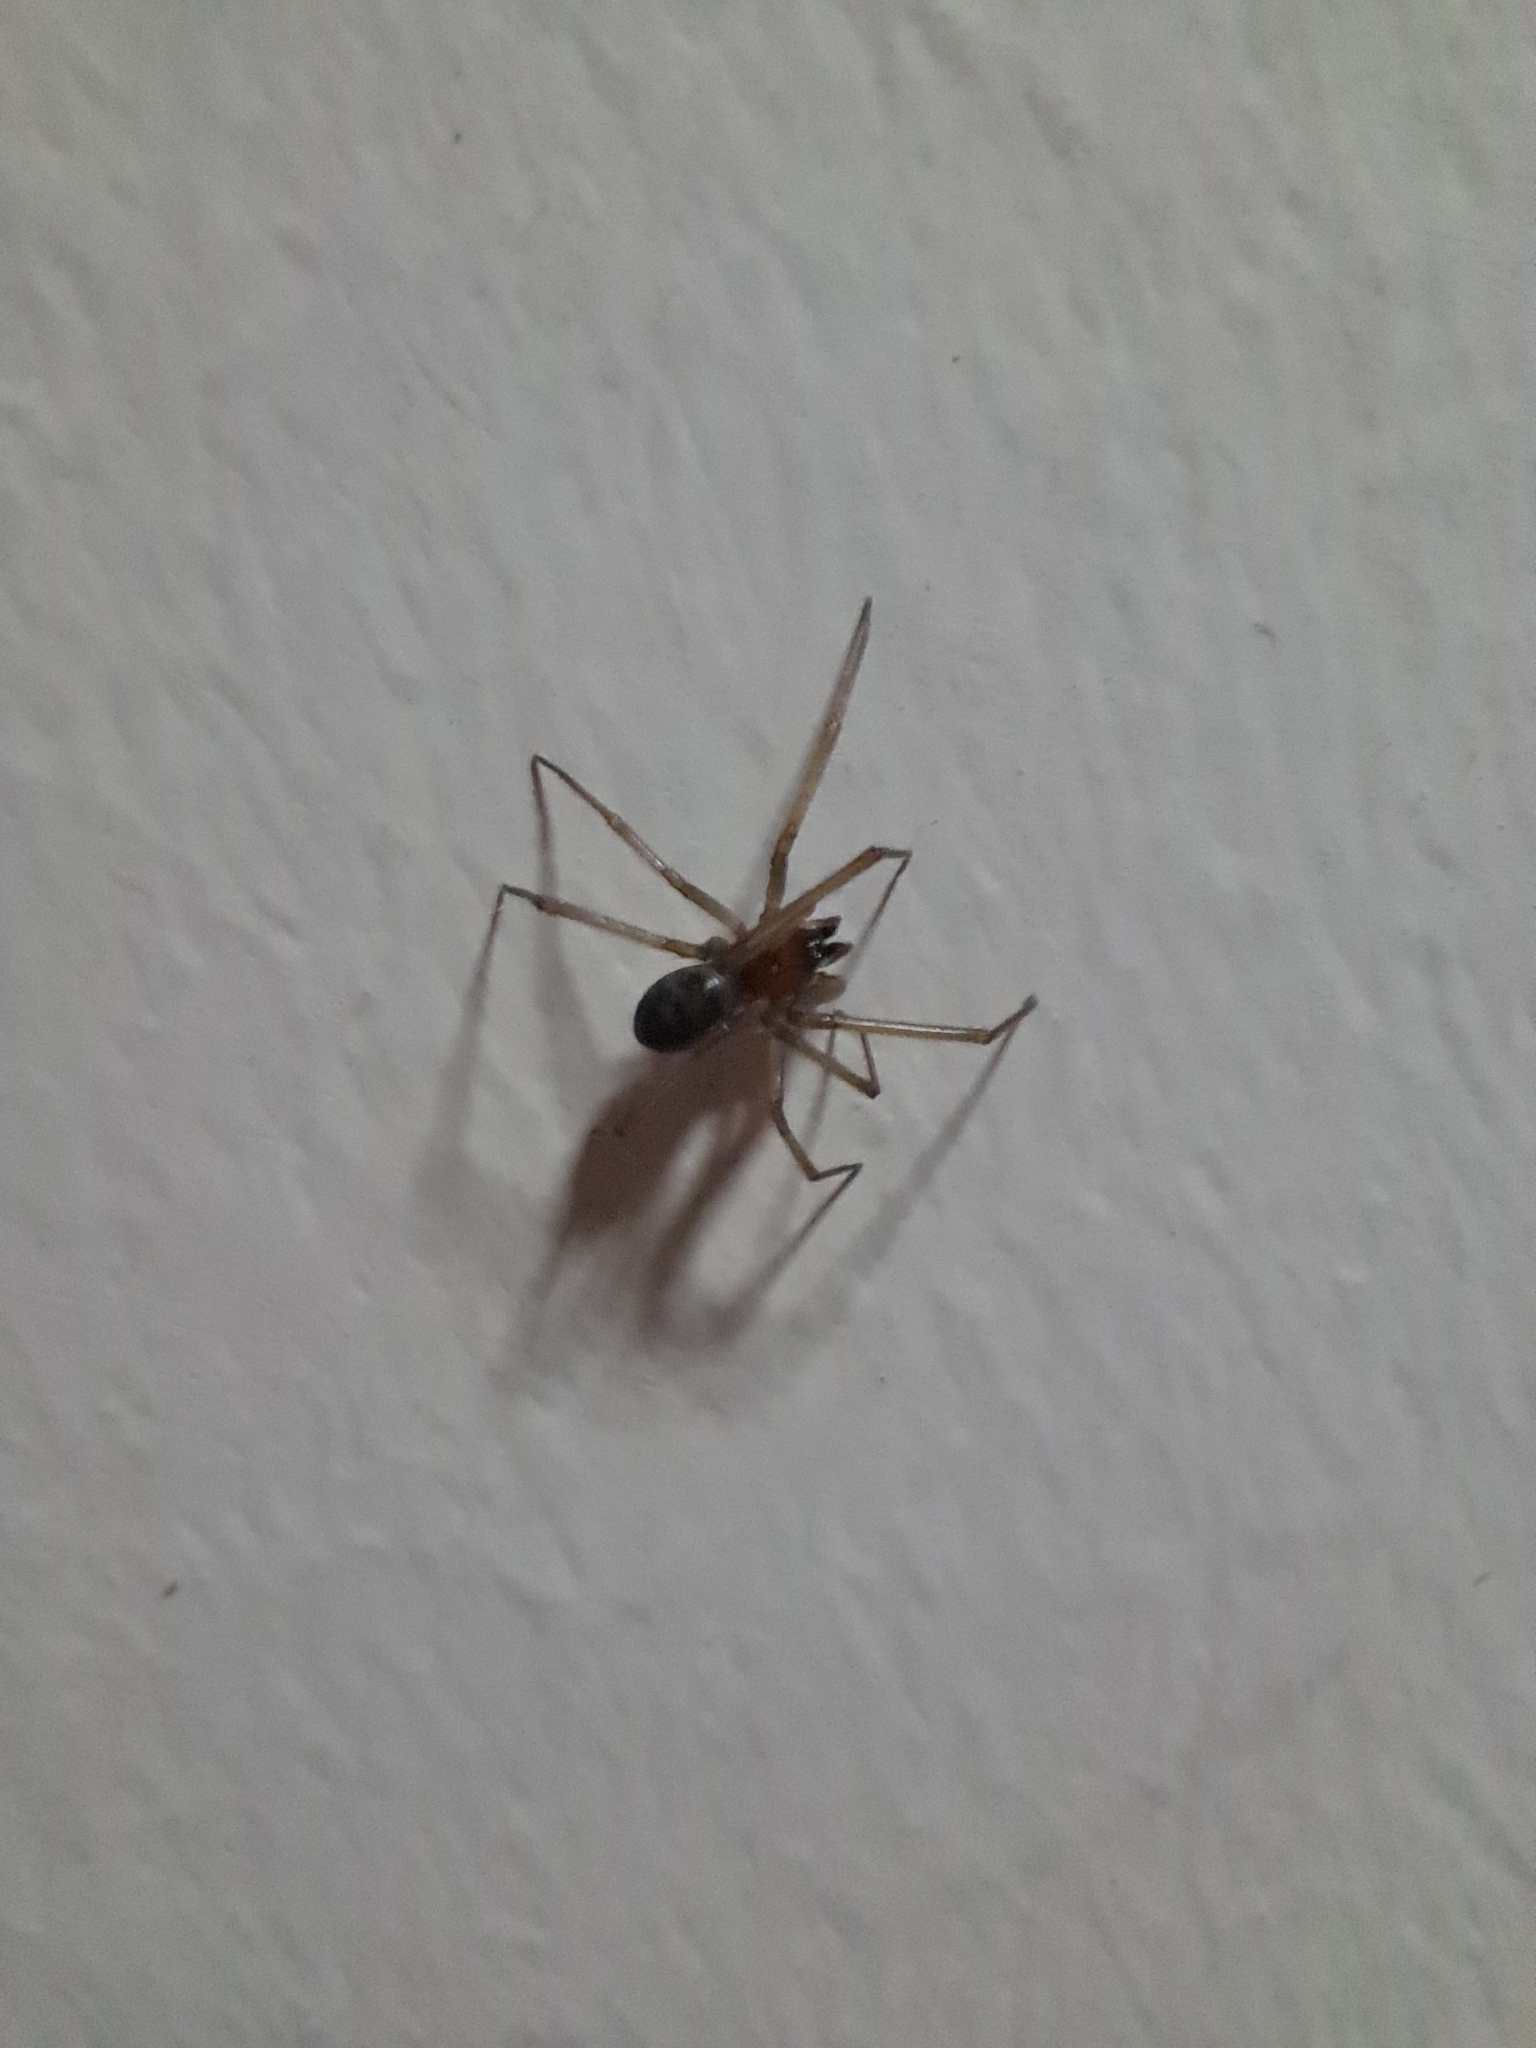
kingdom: Animalia
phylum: Arthropoda
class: Arachnida
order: Araneae
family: Theridiidae
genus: Steatoda
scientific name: Steatoda grossa
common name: False black widow
